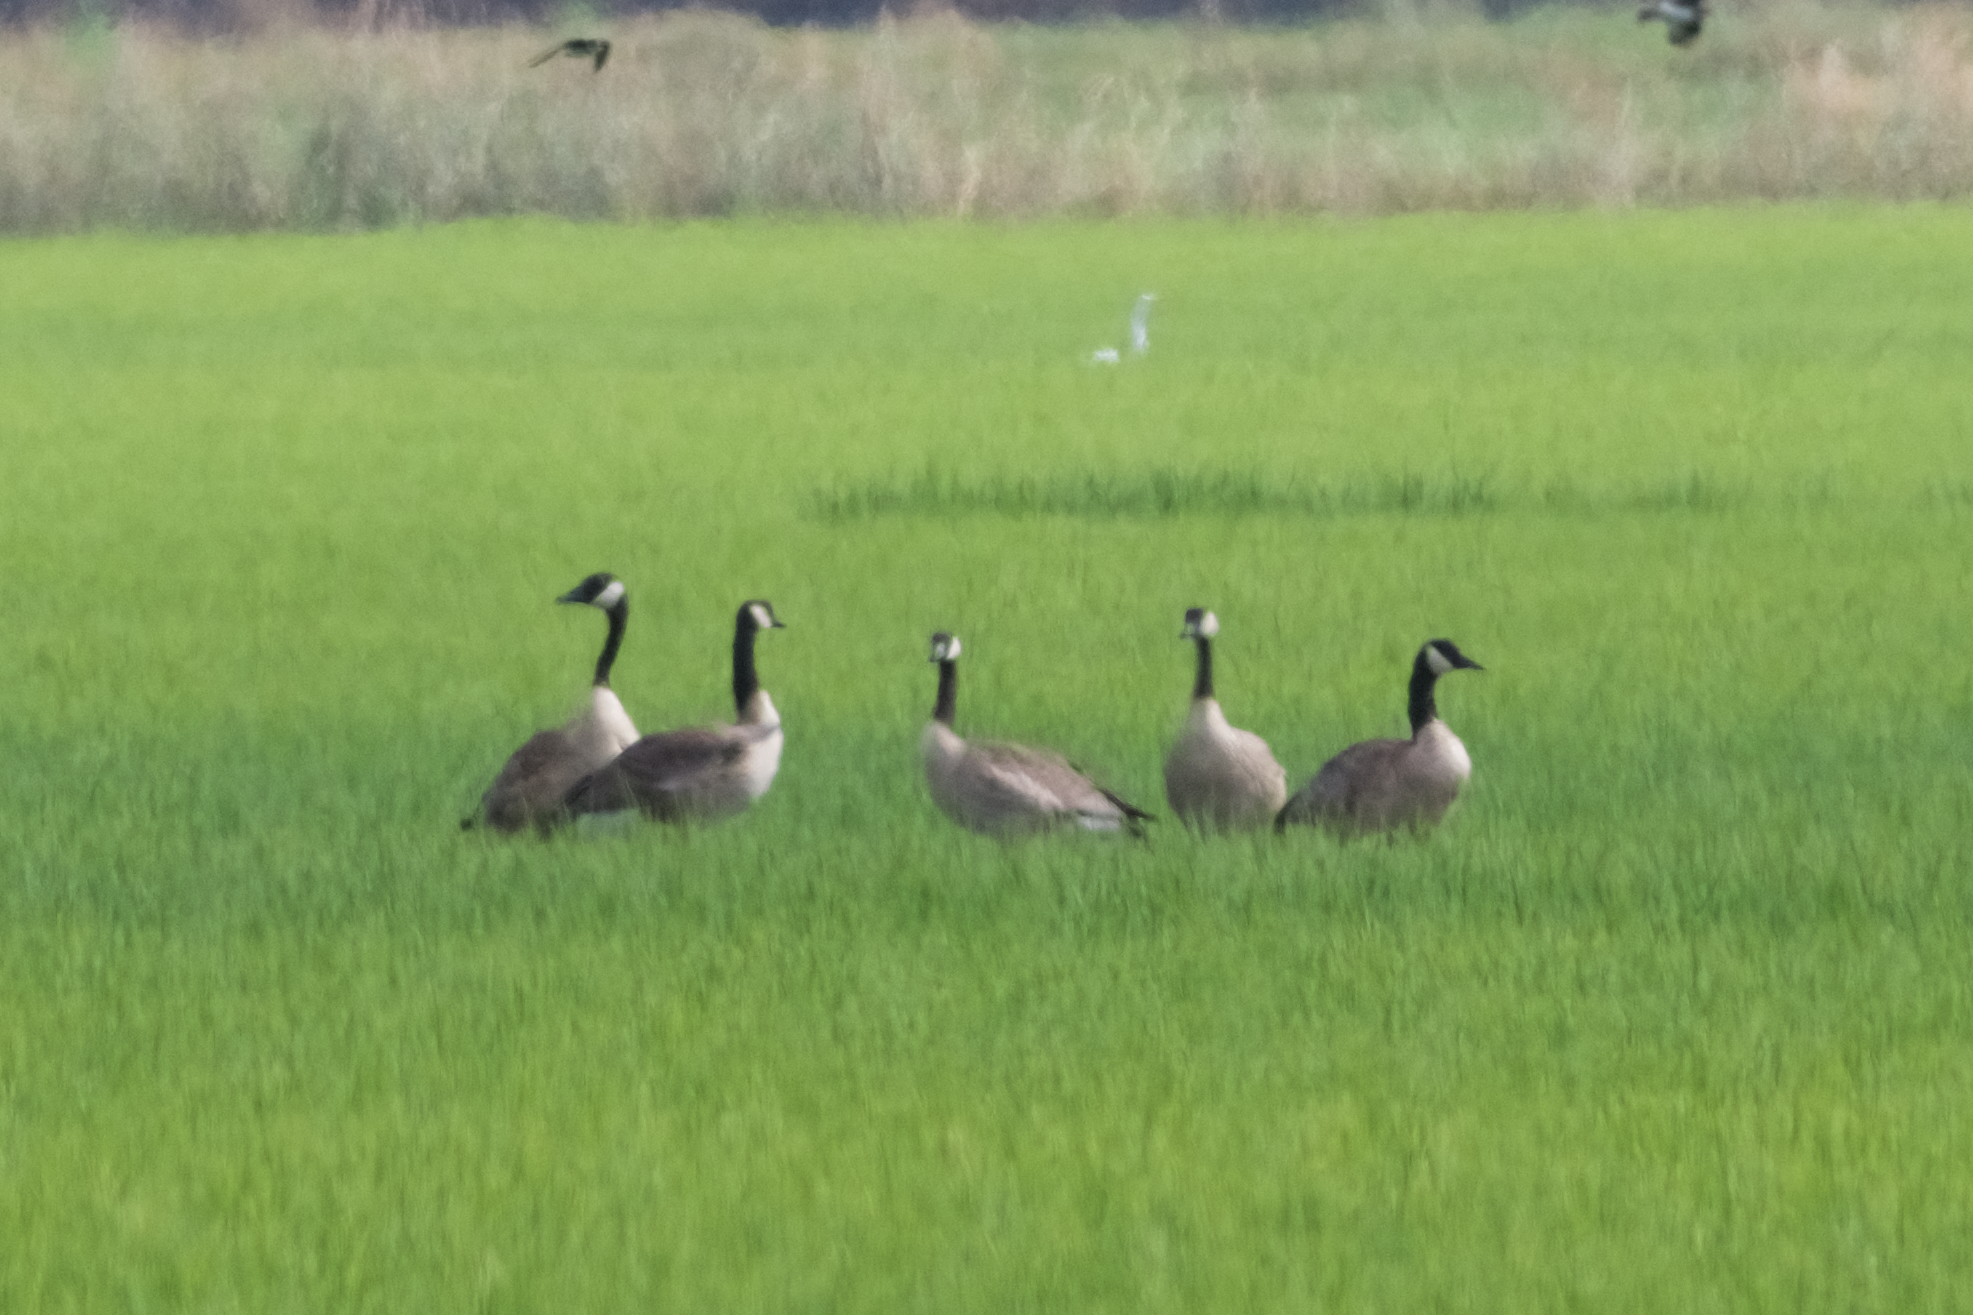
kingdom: Animalia
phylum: Chordata
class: Aves
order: Anseriformes
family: Anatidae
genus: Branta
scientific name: Branta canadensis
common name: Canada goose
